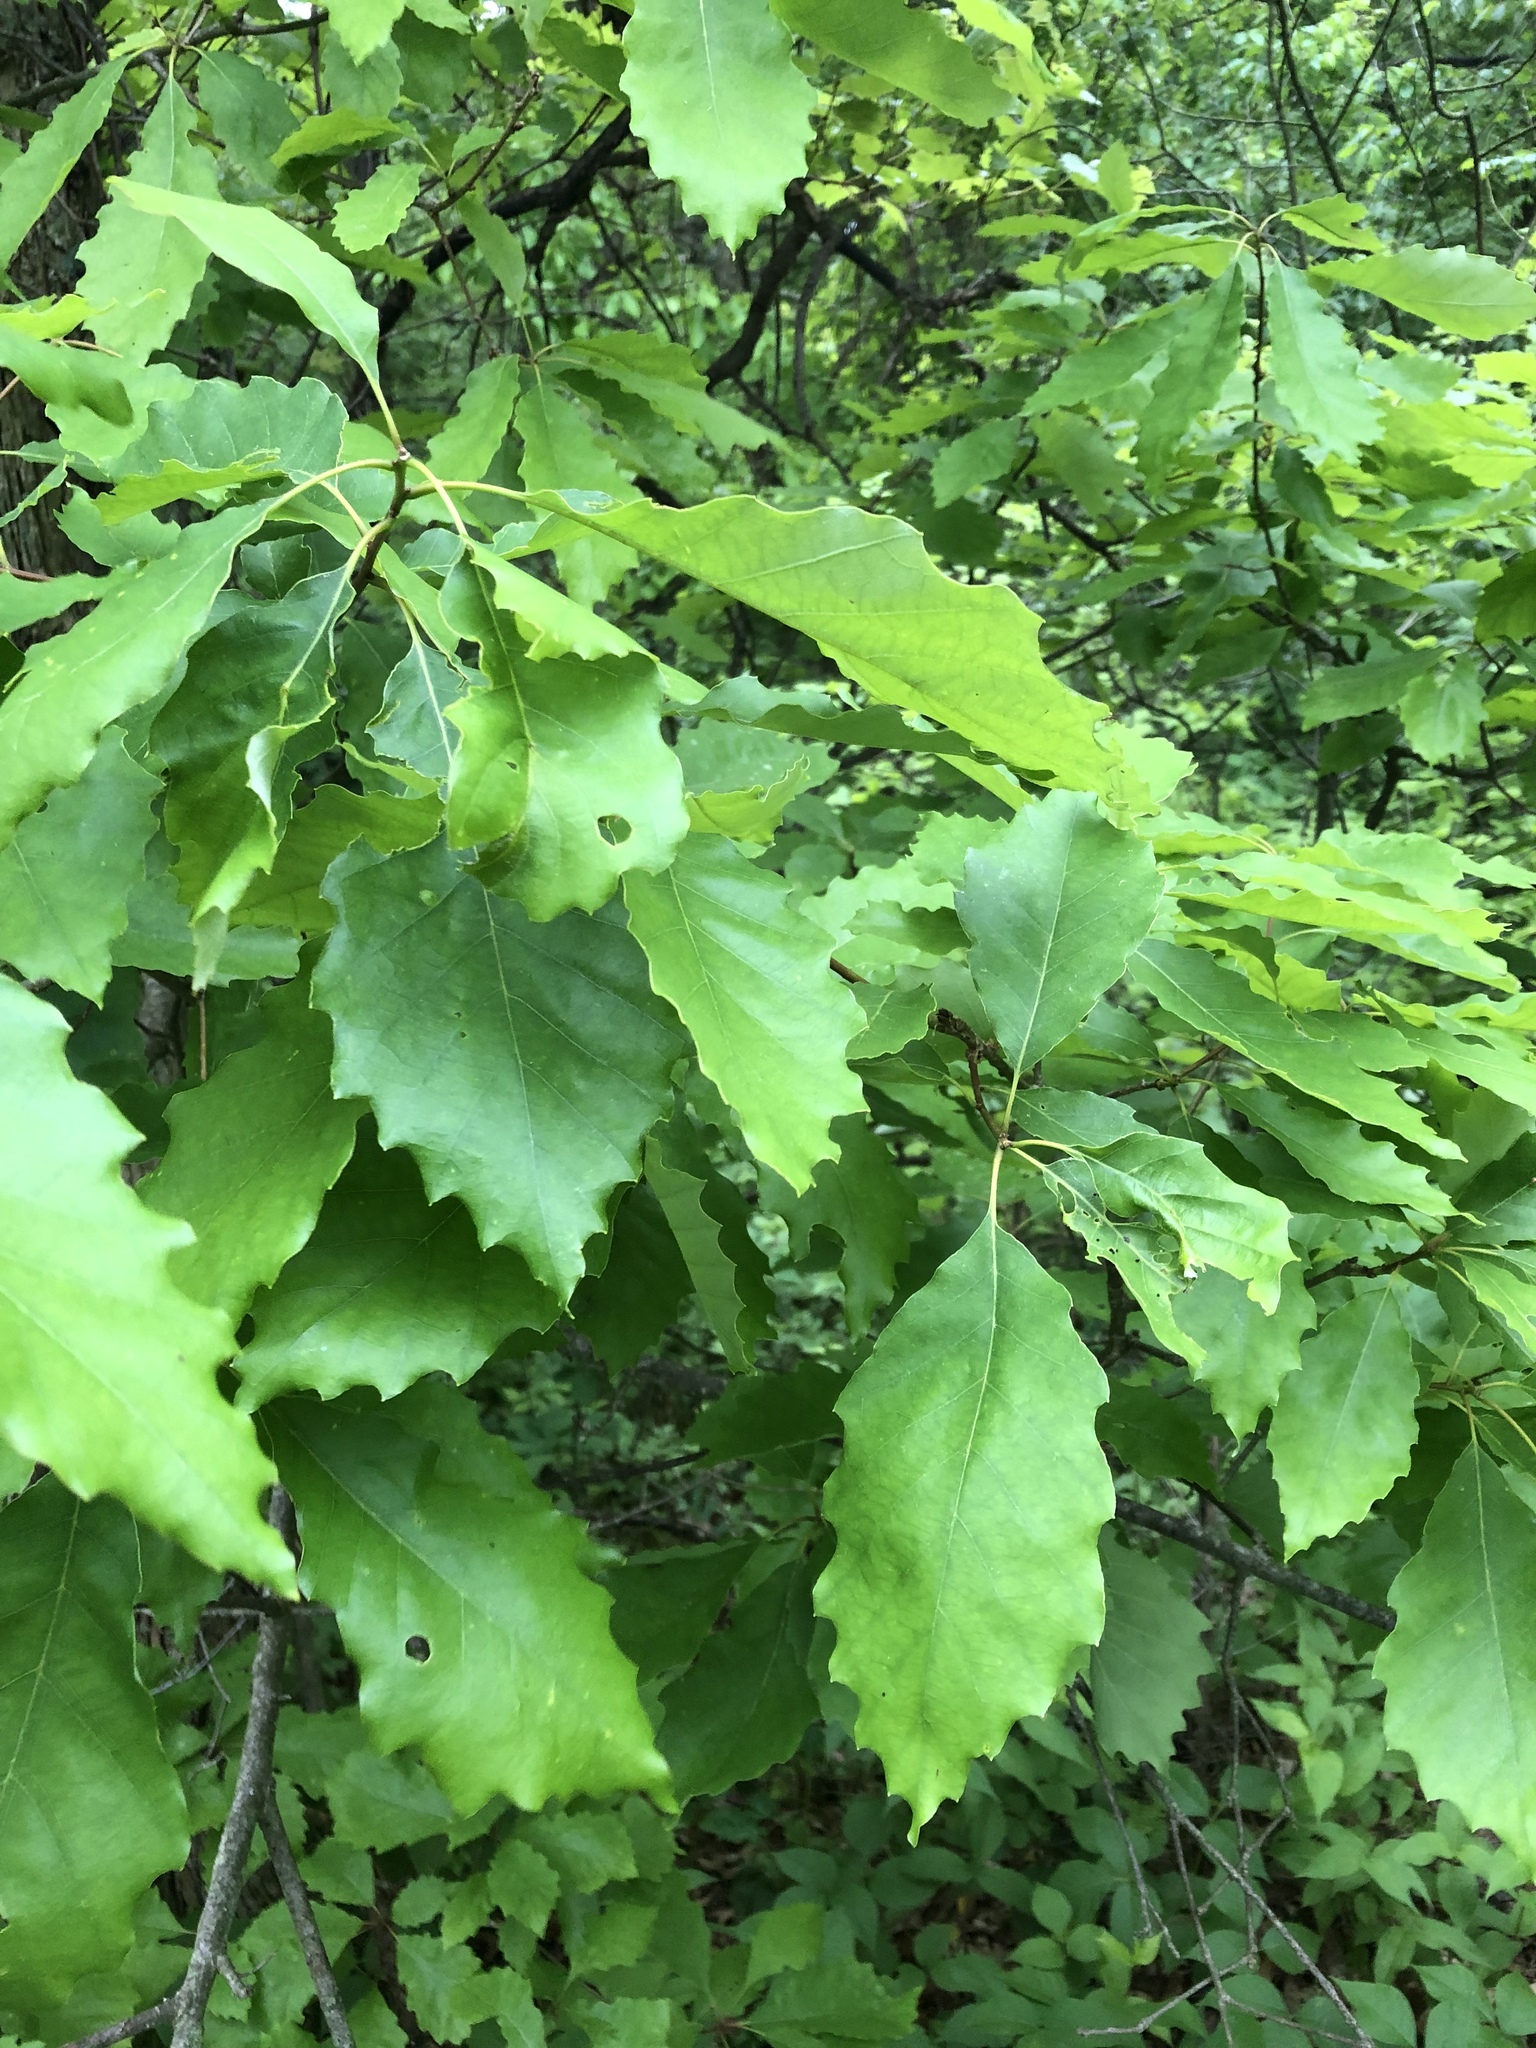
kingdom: Plantae
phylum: Tracheophyta
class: Magnoliopsida
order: Fagales
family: Fagaceae
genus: Quercus
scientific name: Quercus muehlenbergii
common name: Chinkapin oak
